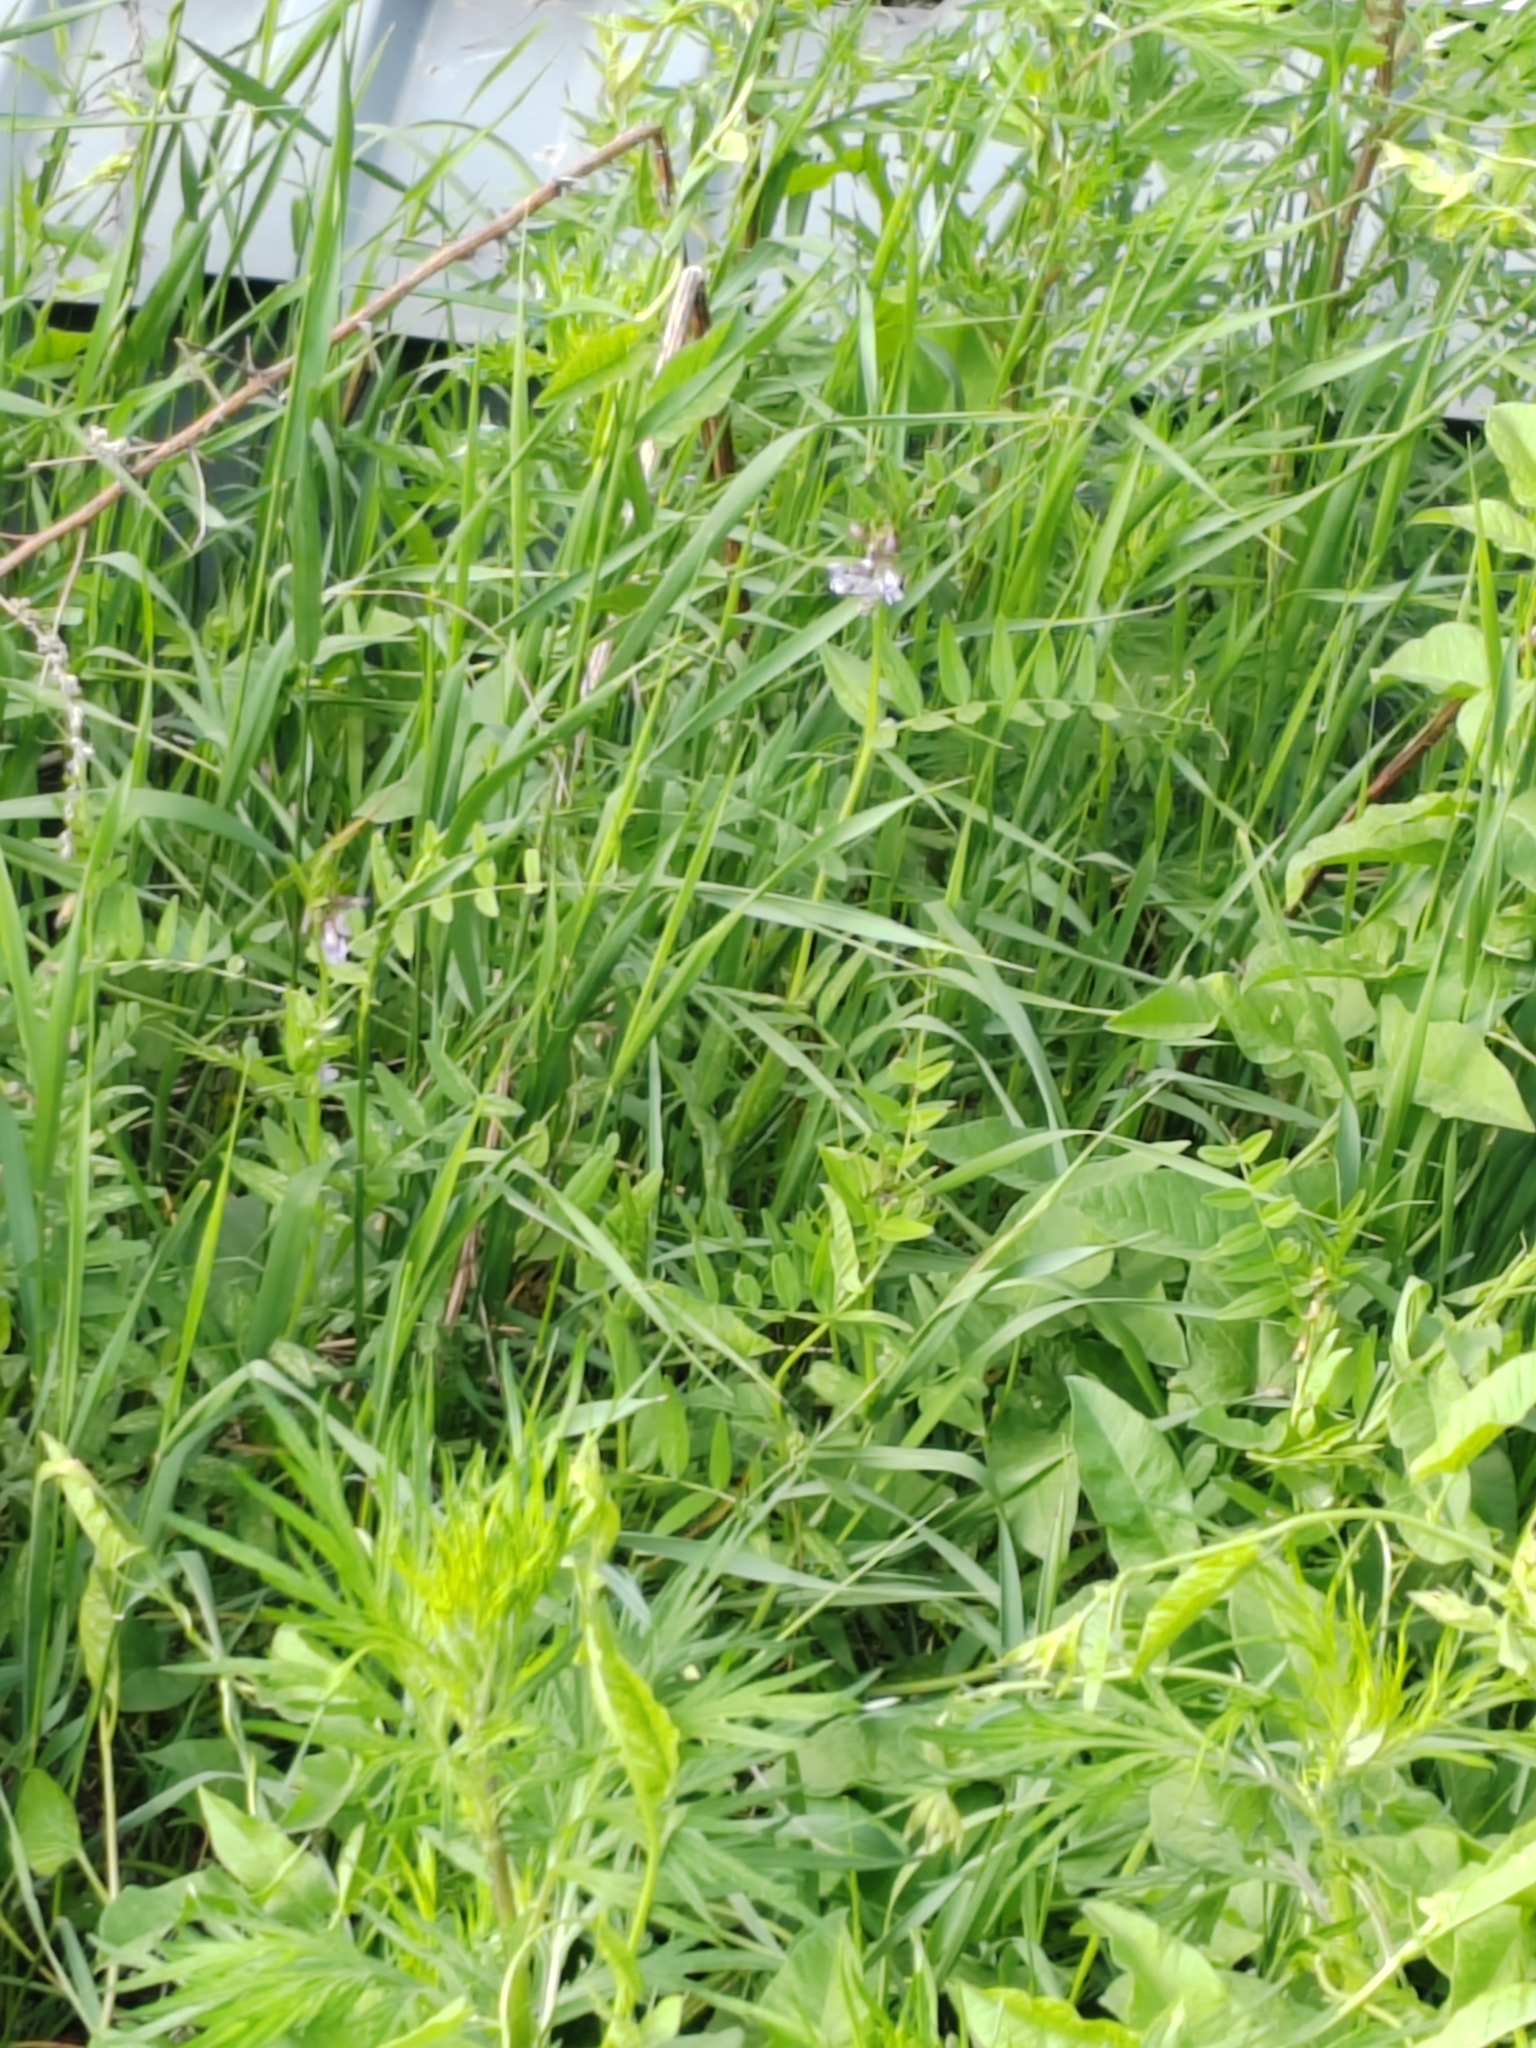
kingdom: Plantae
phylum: Tracheophyta
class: Magnoliopsida
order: Fabales
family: Fabaceae
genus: Vicia
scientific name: Vicia sepium
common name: Bush vetch
